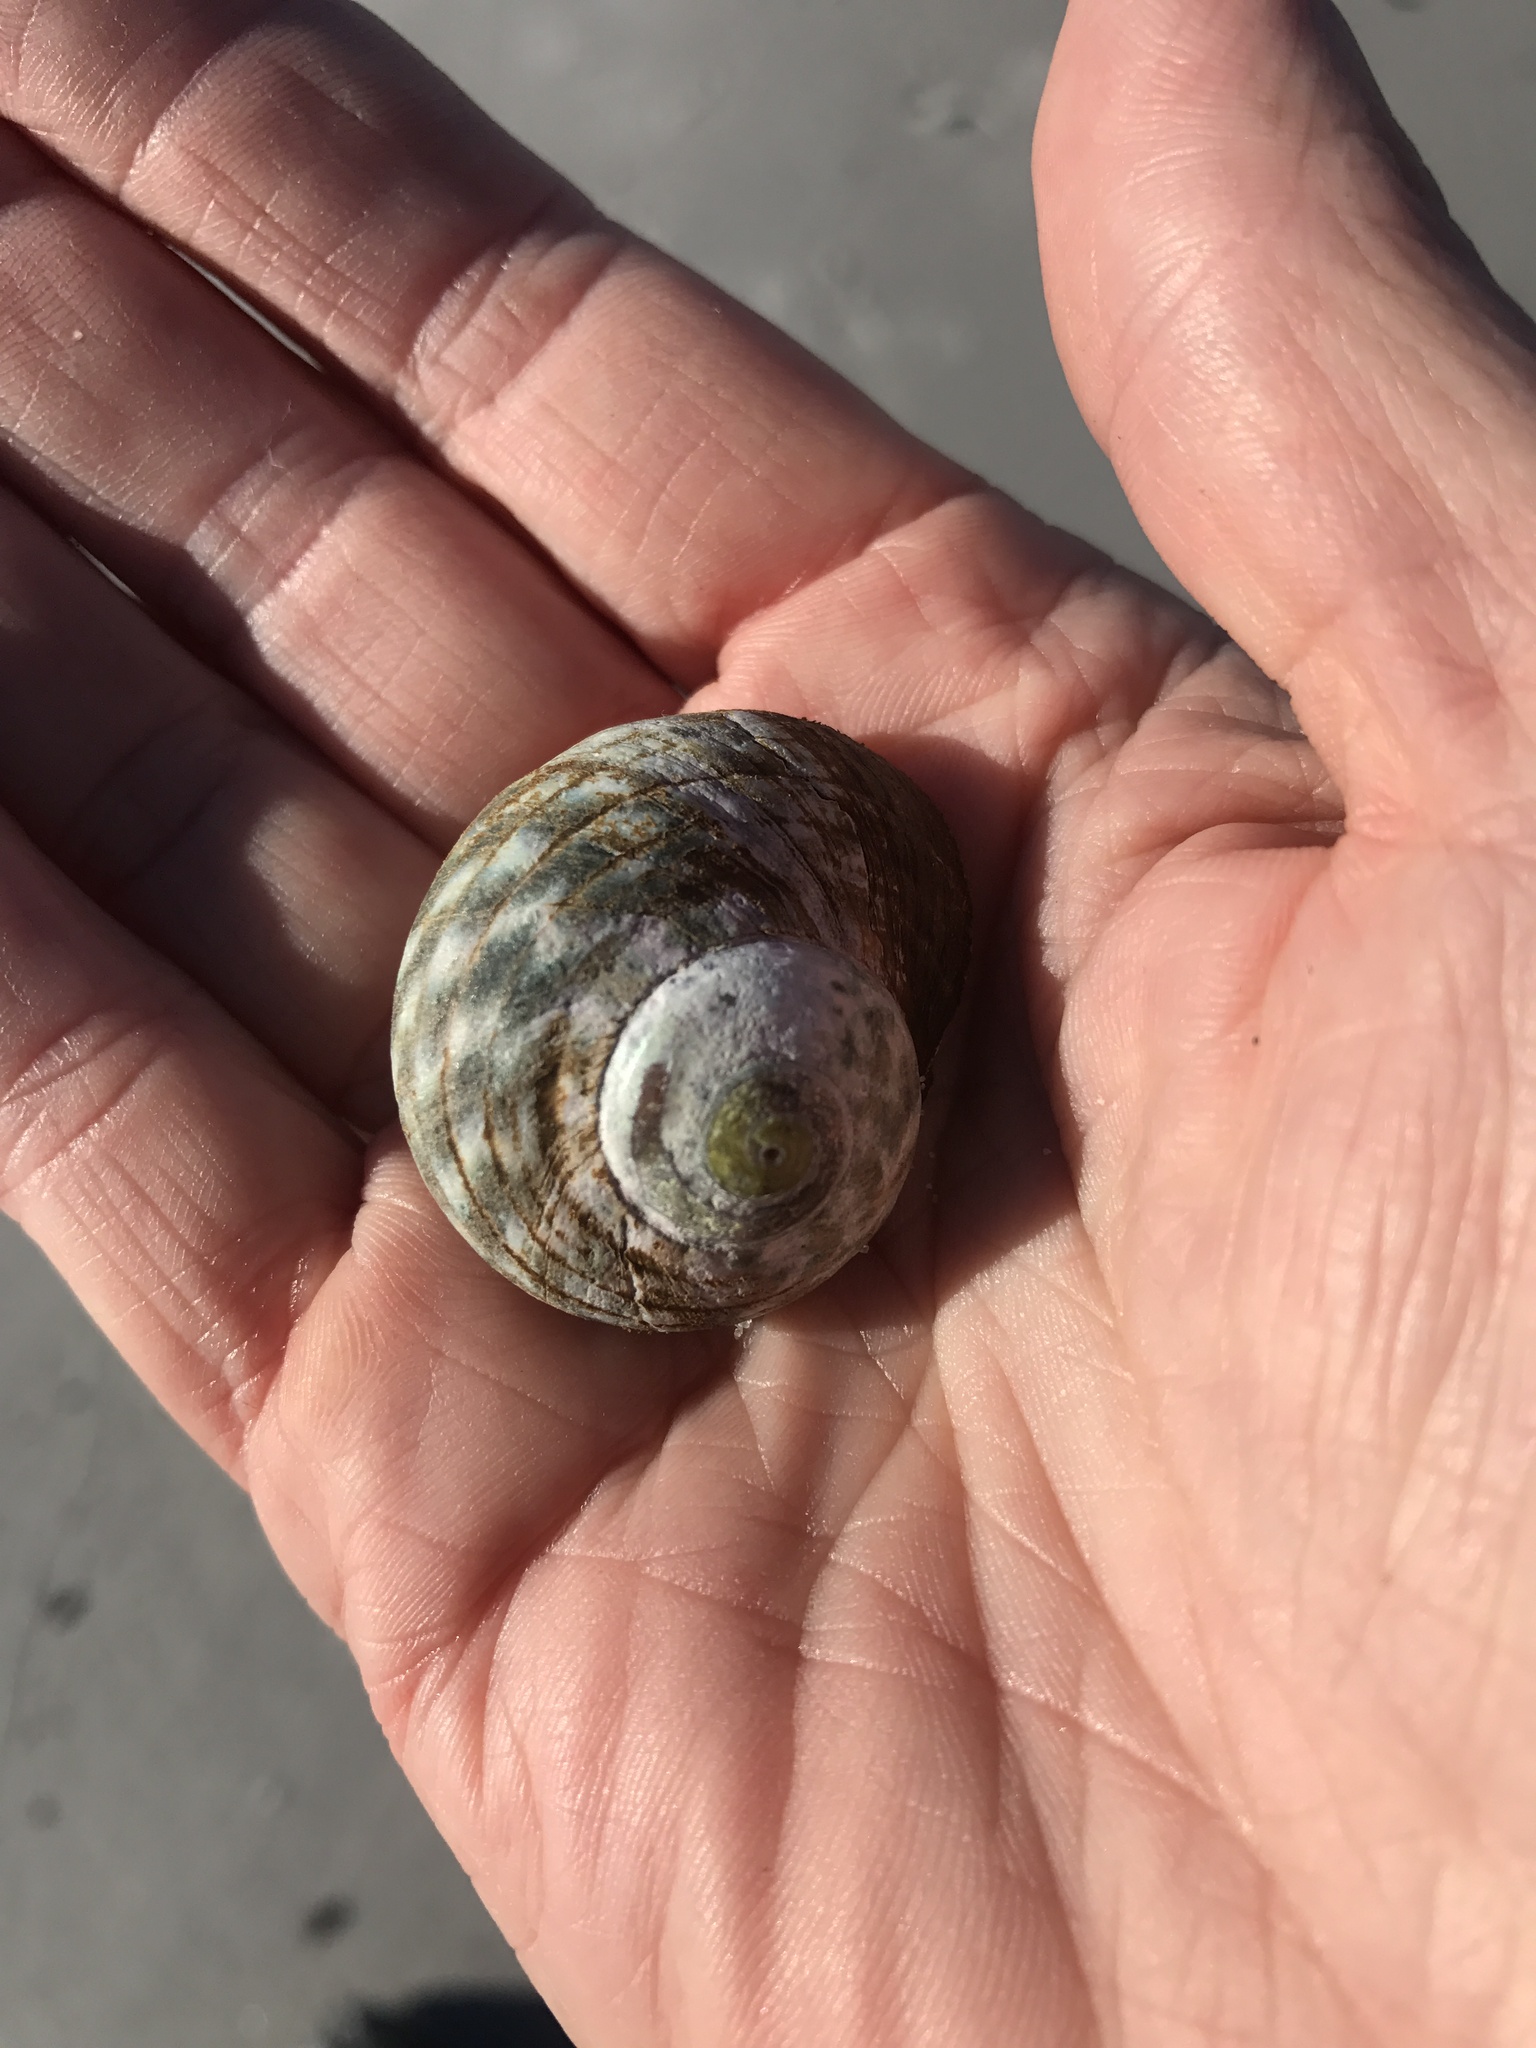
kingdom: Animalia
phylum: Mollusca
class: Gastropoda
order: Trochida
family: Turbinidae
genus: Lunella
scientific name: Lunella undulata
